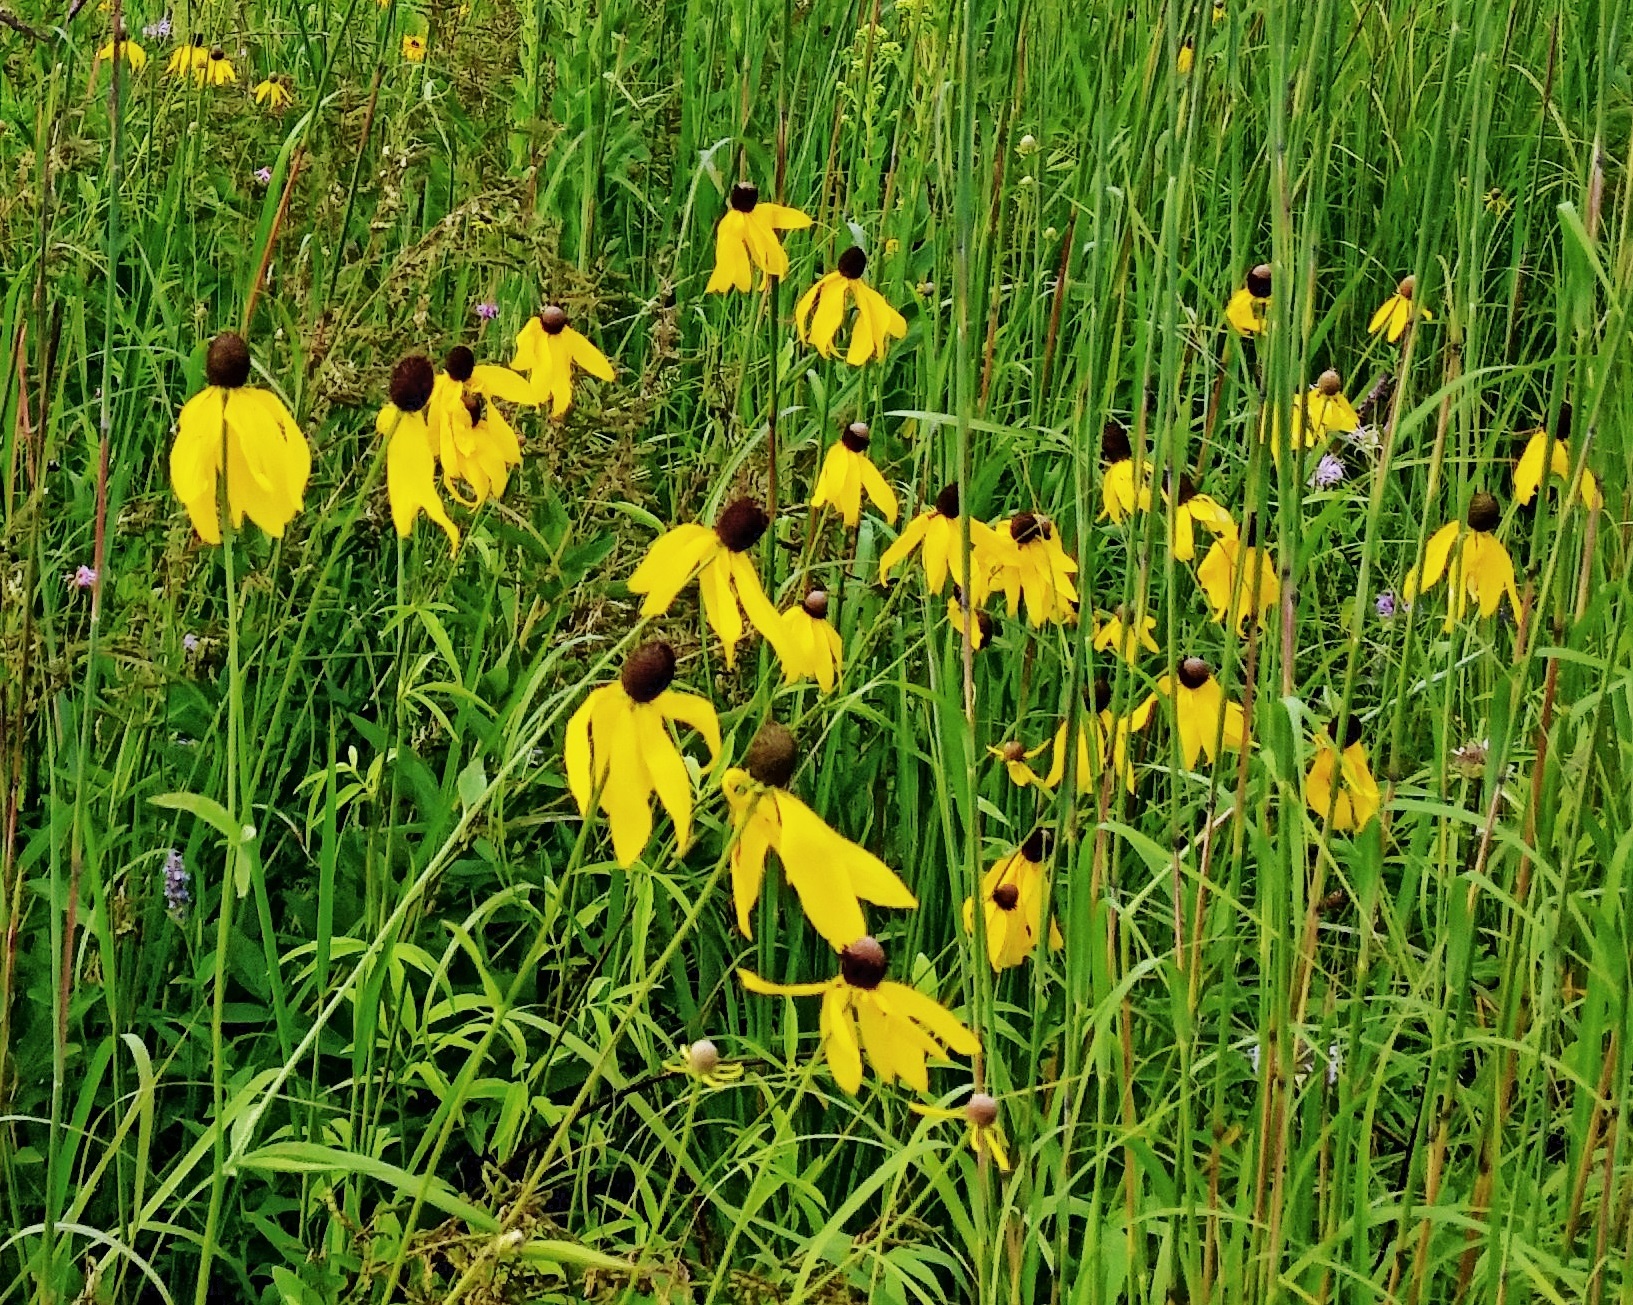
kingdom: Plantae
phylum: Tracheophyta
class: Magnoliopsida
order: Asterales
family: Asteraceae
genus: Ratibida
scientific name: Ratibida pinnata
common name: Drooping prairie-coneflower
